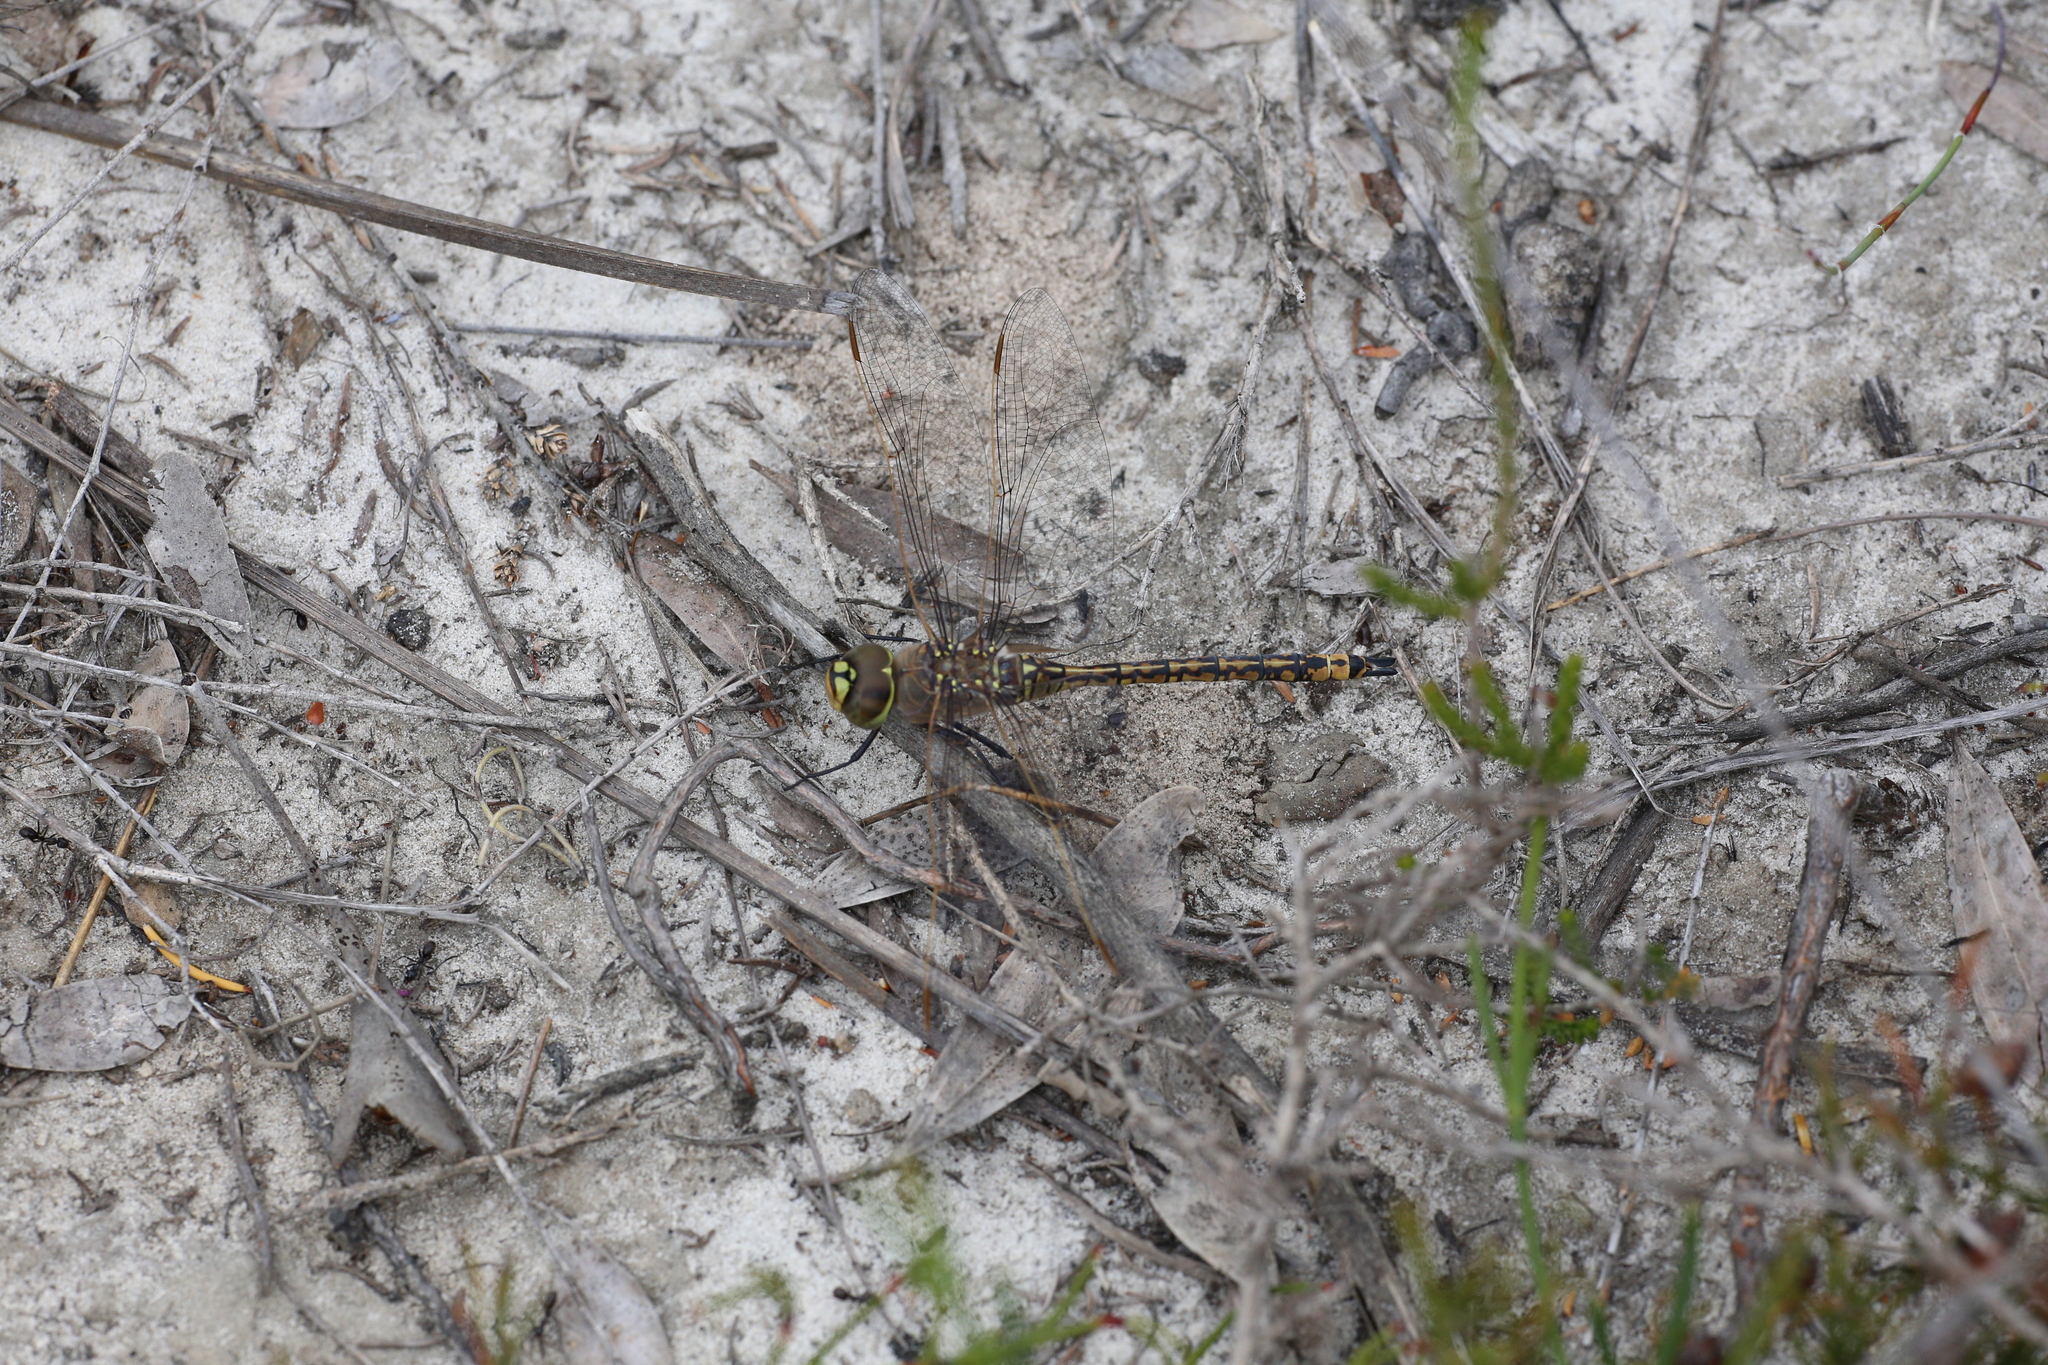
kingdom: Animalia
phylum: Arthropoda
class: Insecta
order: Odonata
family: Aeshnidae
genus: Anax
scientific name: Anax papuensis
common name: Australian emperor
